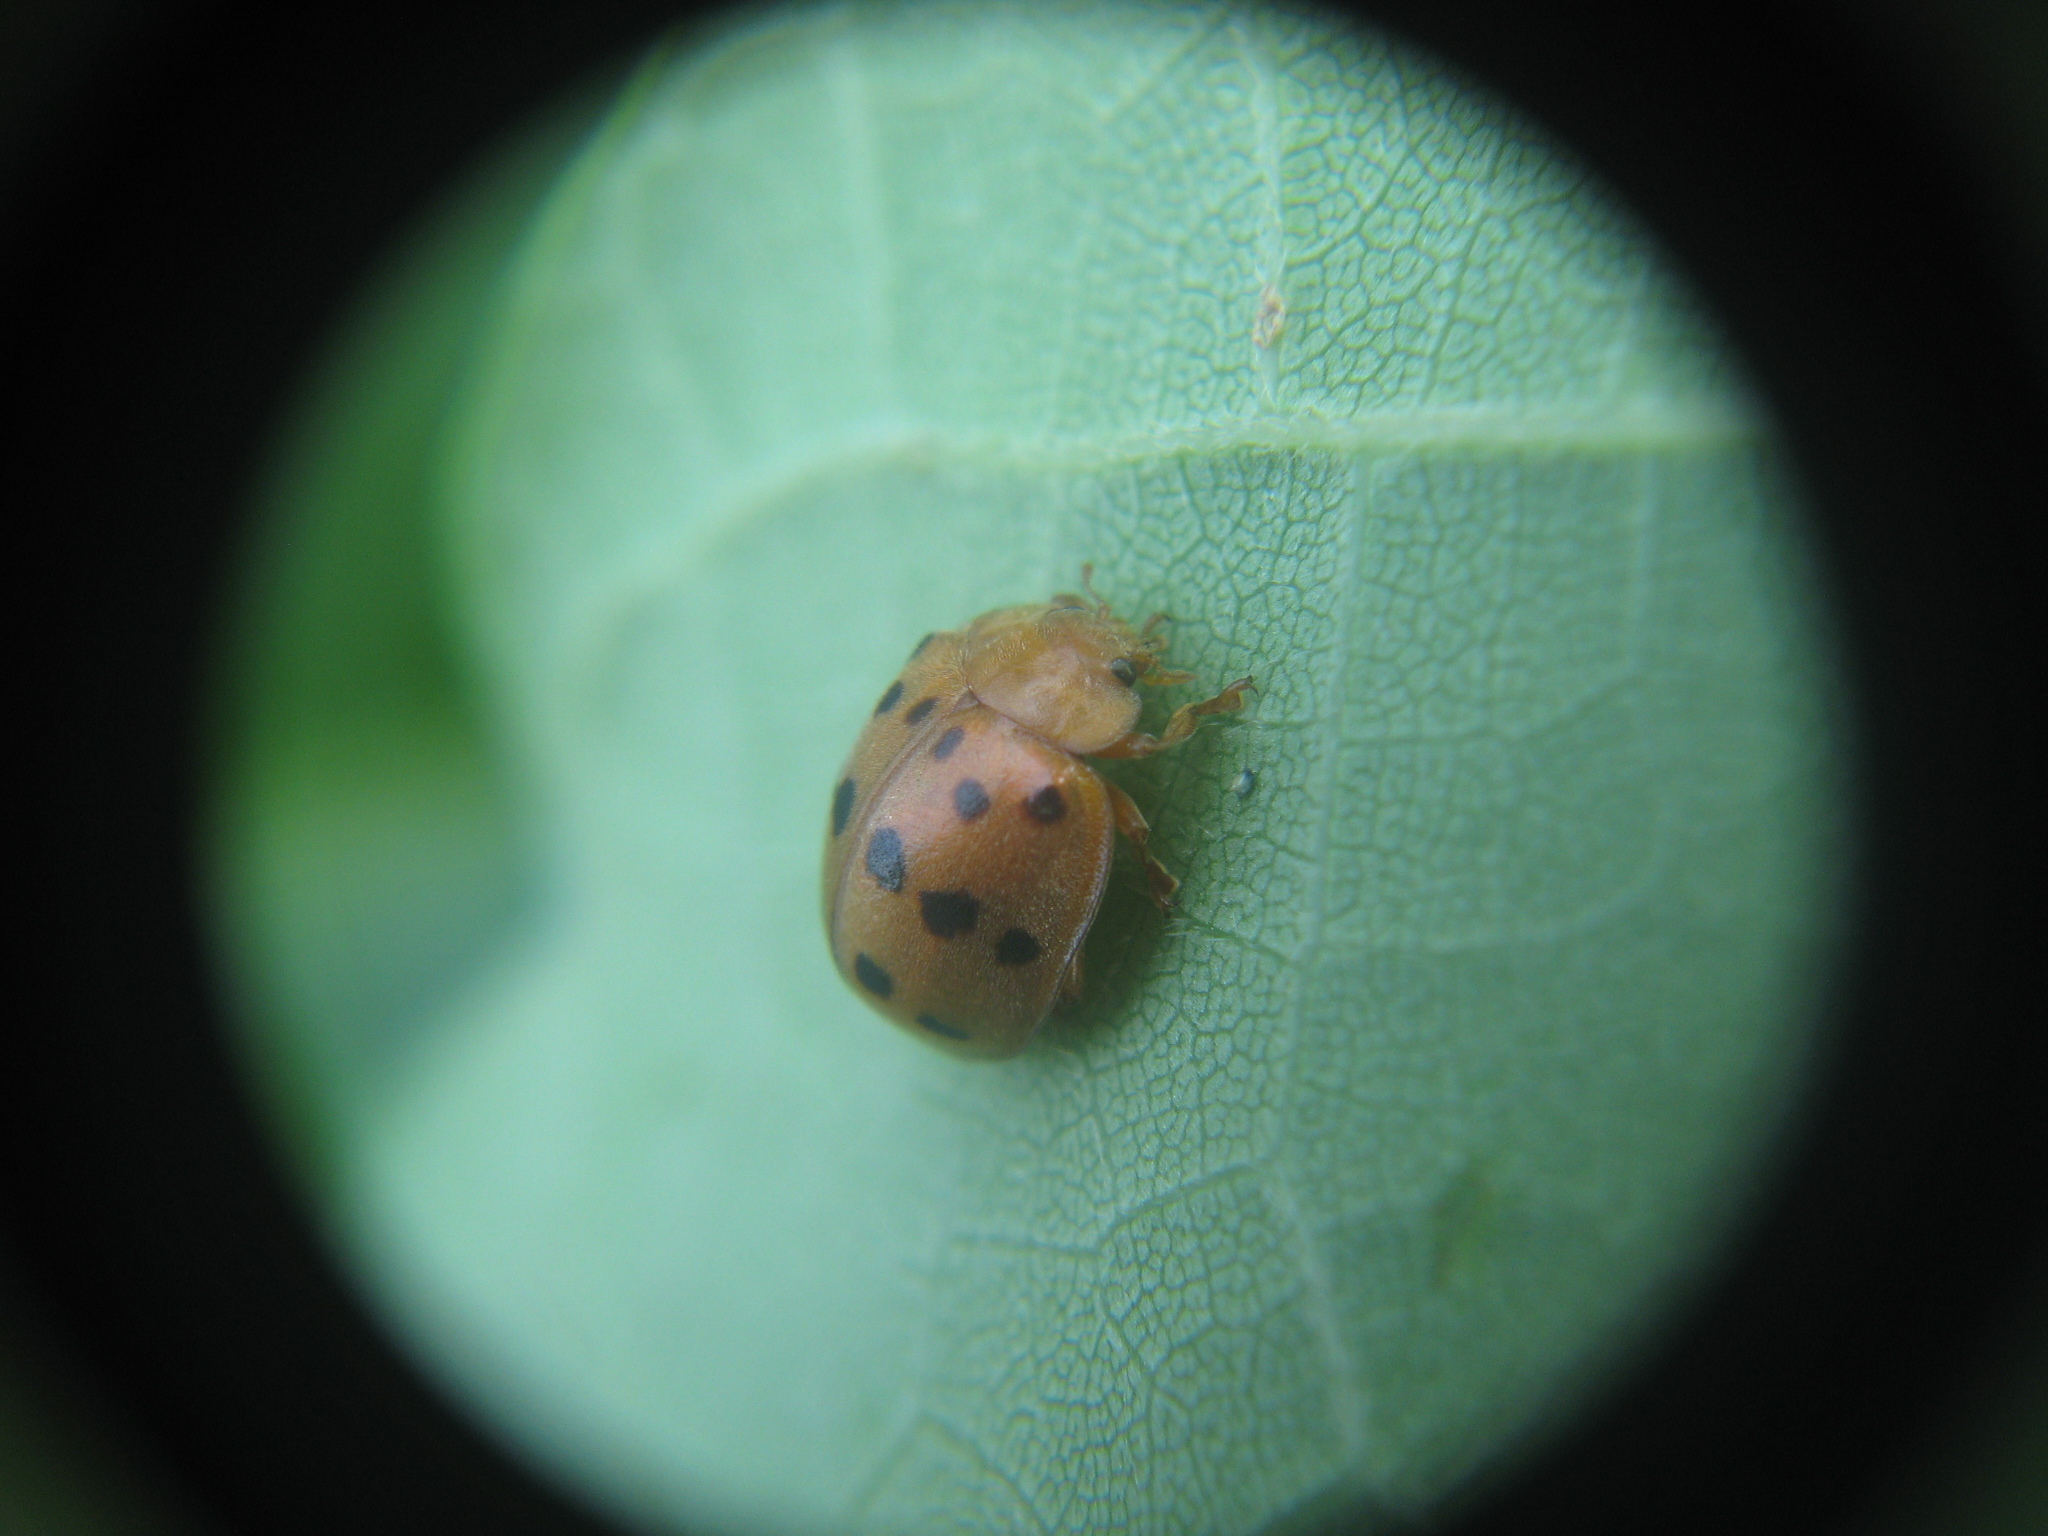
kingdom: Animalia
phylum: Arthropoda
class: Insecta
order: Coleoptera
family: Coccinellidae
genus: Epilachna
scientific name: Epilachna varivestis
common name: Ladybird beetle
